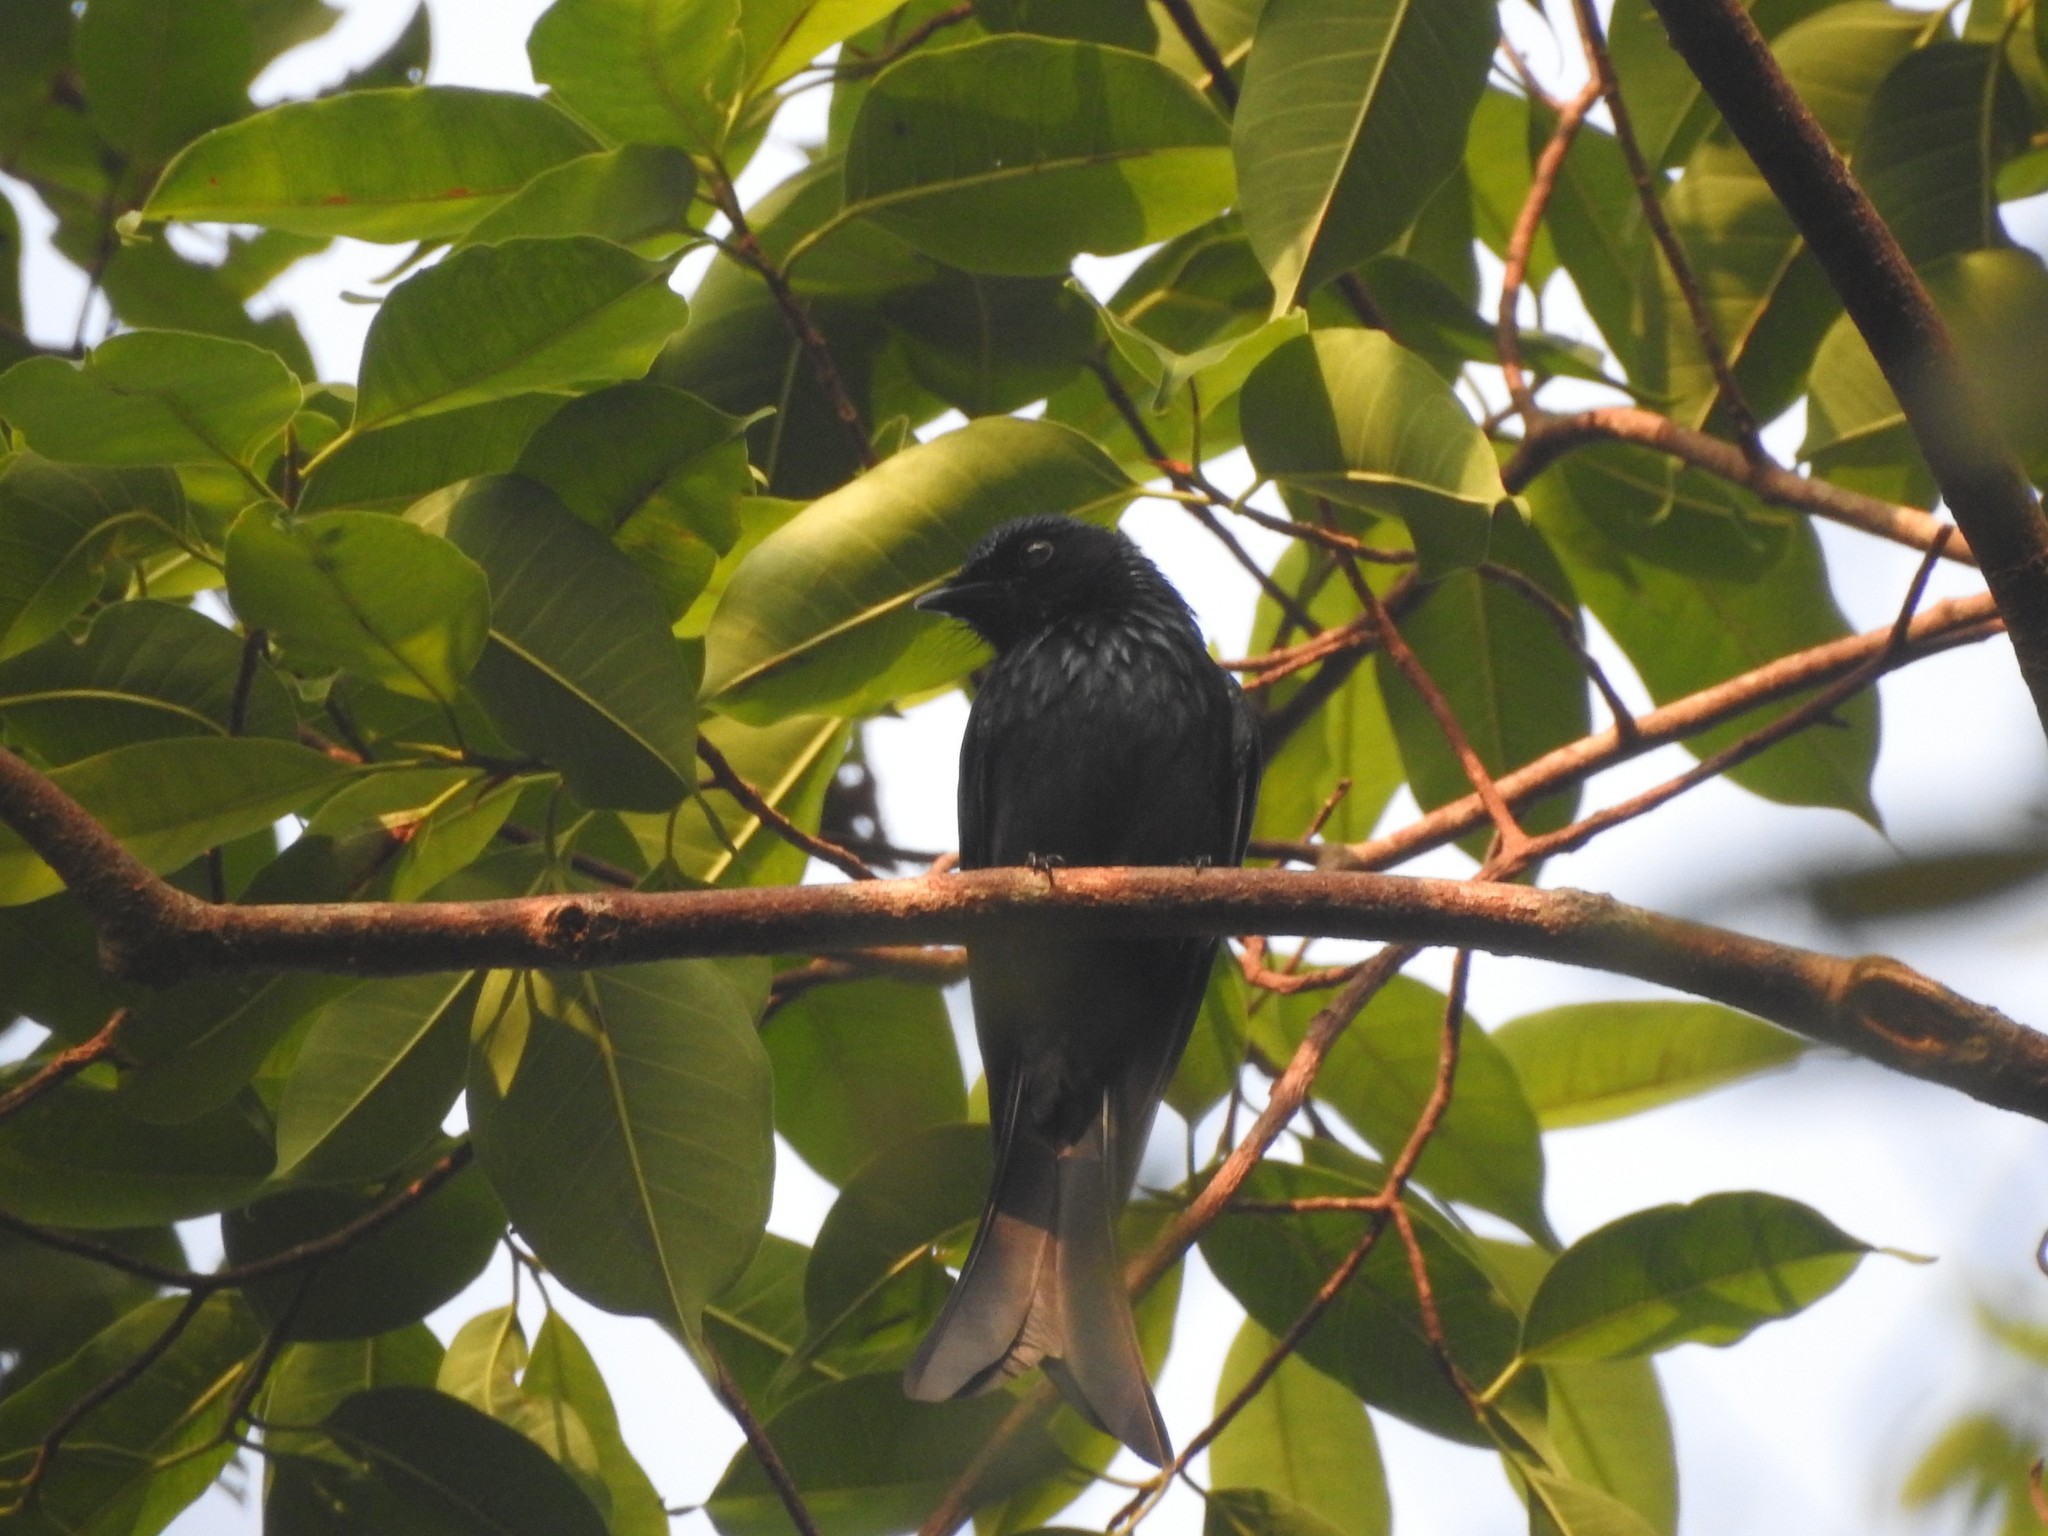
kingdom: Animalia
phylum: Chordata
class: Aves
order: Passeriformes
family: Dicruridae
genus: Dicrurus
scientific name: Dicrurus aeneus
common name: Bronzed drongo
